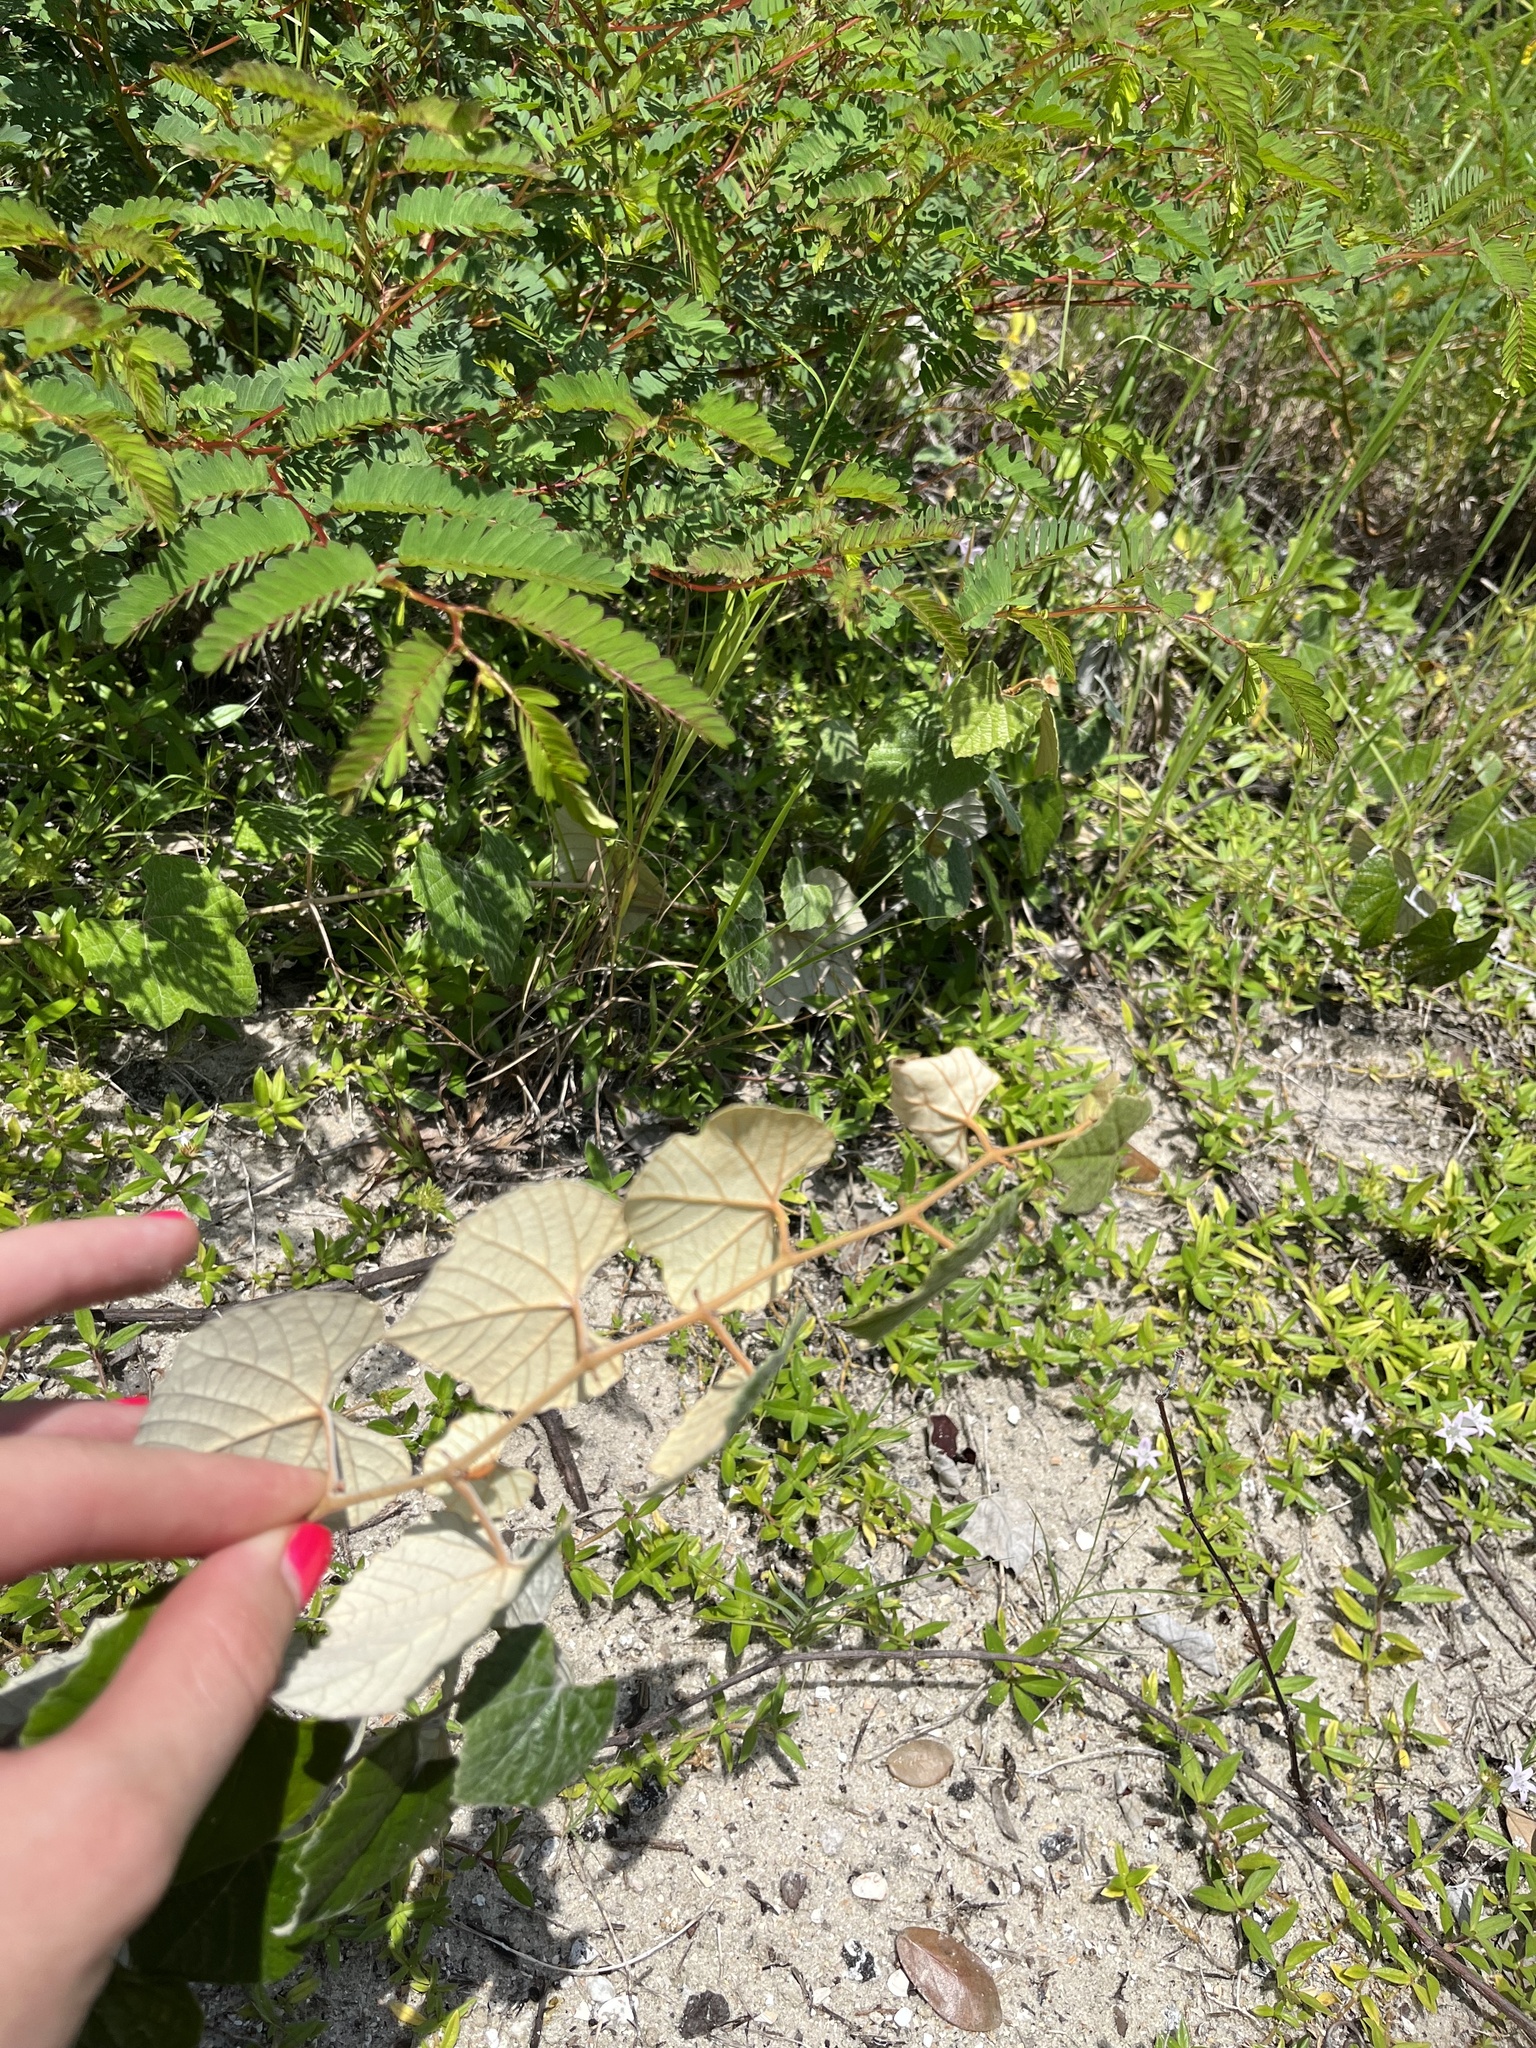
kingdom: Plantae
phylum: Tracheophyta
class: Magnoliopsida
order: Vitales
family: Vitaceae
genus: Vitis
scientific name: Vitis shuttleworthii
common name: Caloosa grape
